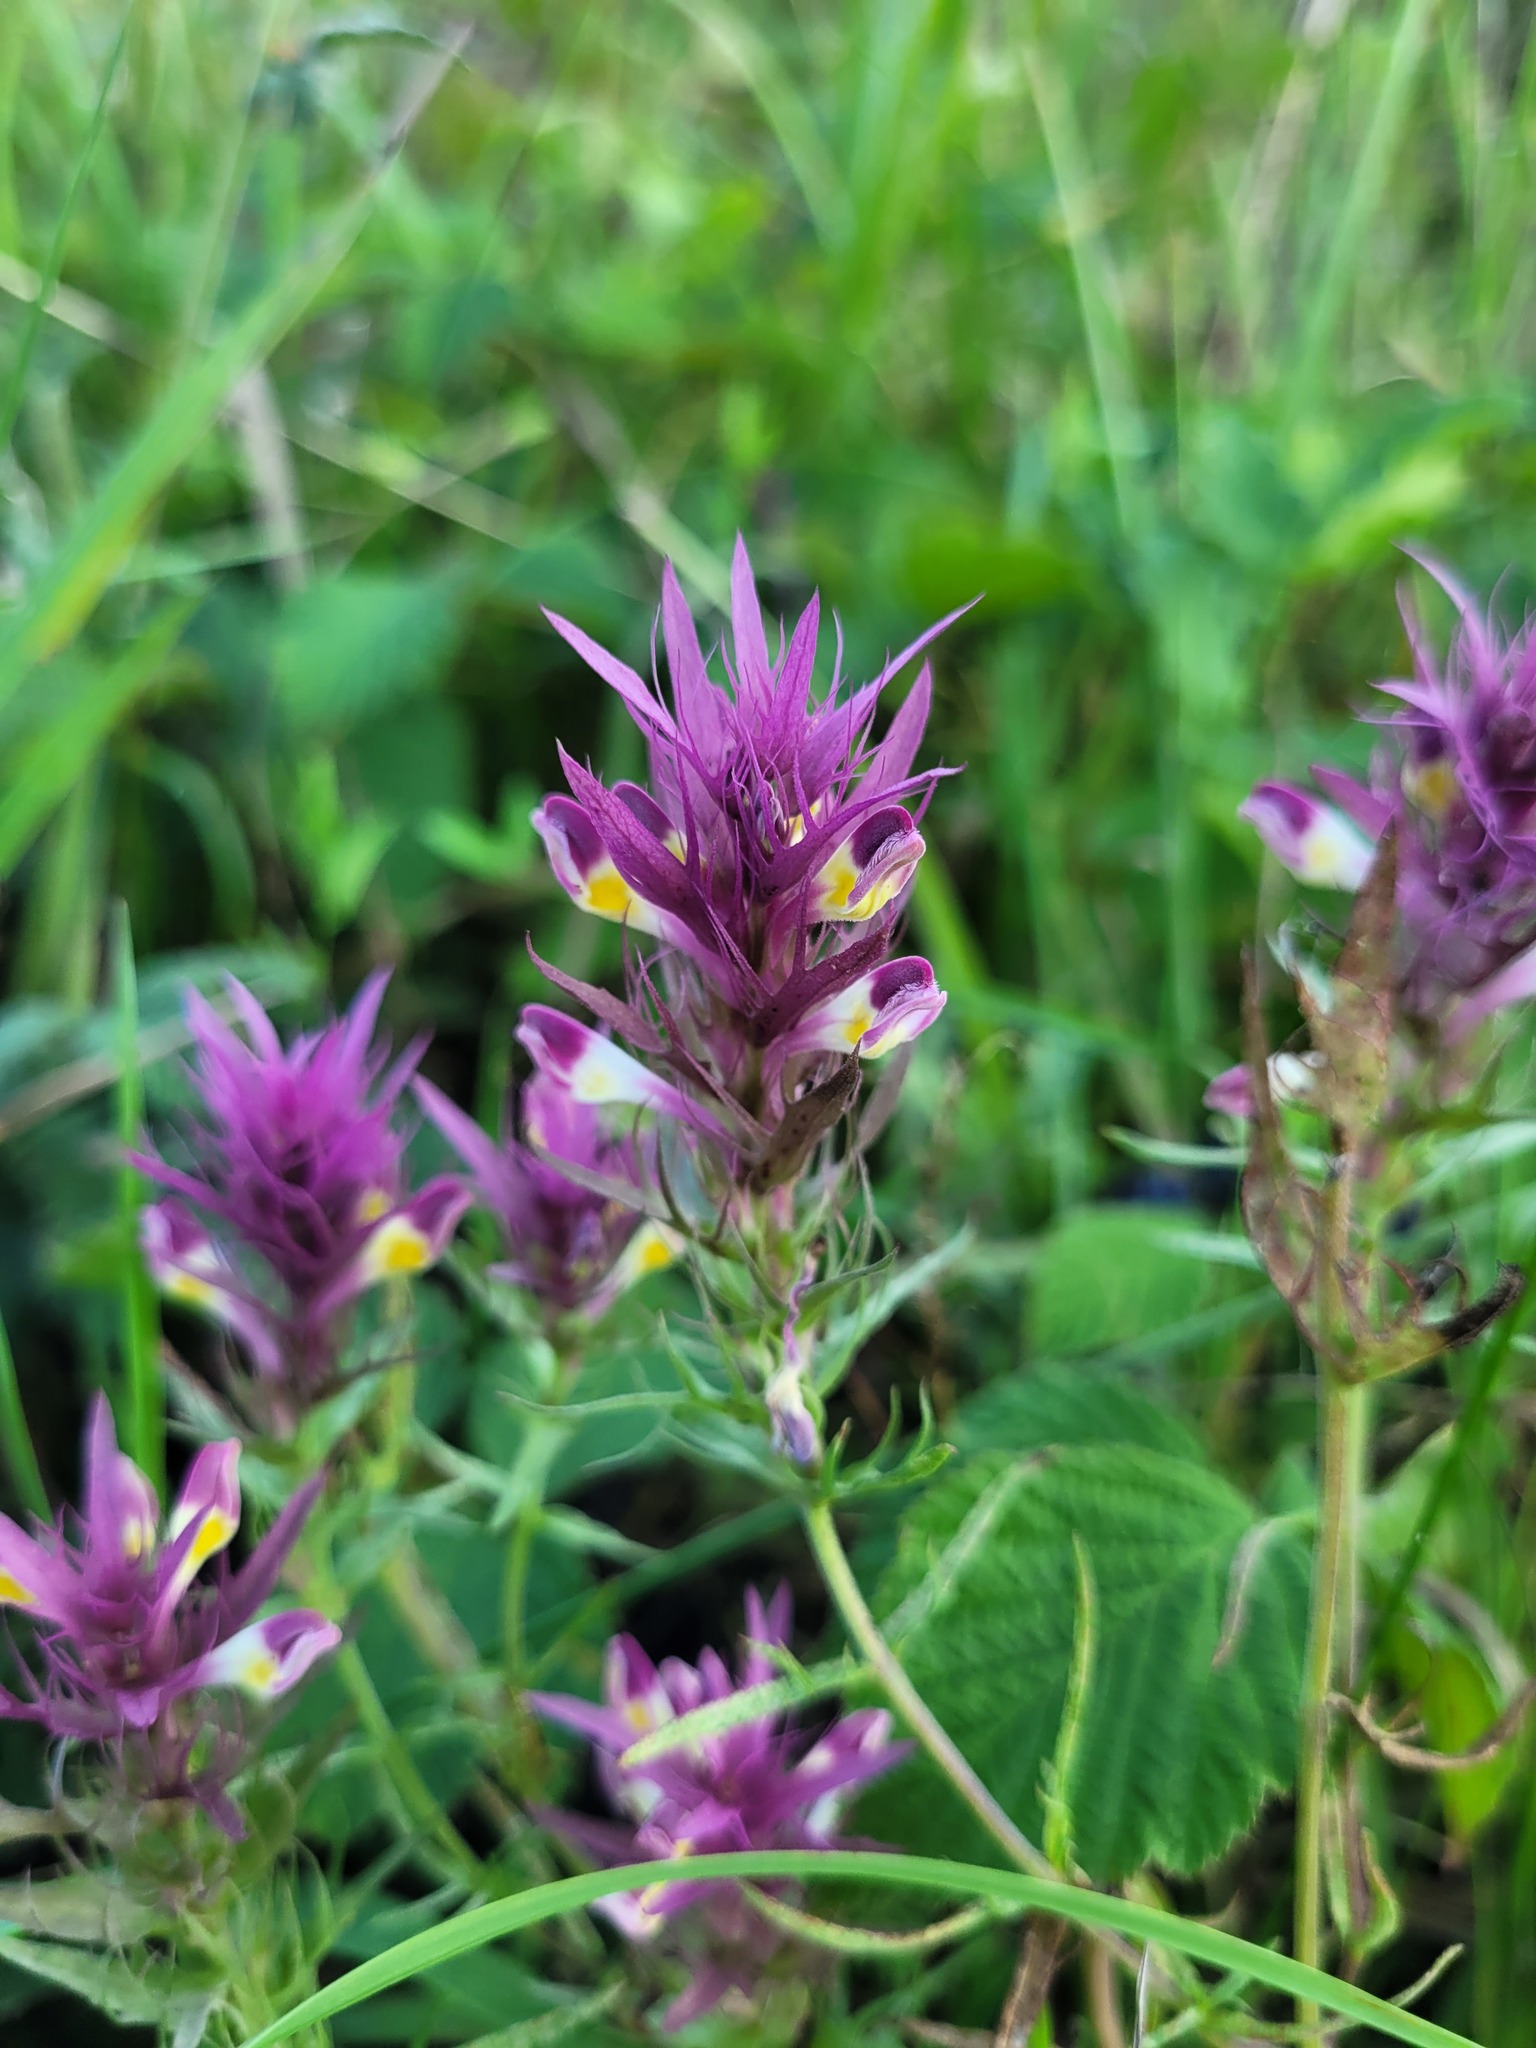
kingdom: Plantae
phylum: Tracheophyta
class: Magnoliopsida
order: Lamiales
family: Orobanchaceae
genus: Melampyrum
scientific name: Melampyrum arvense
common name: Field cow-wheat
